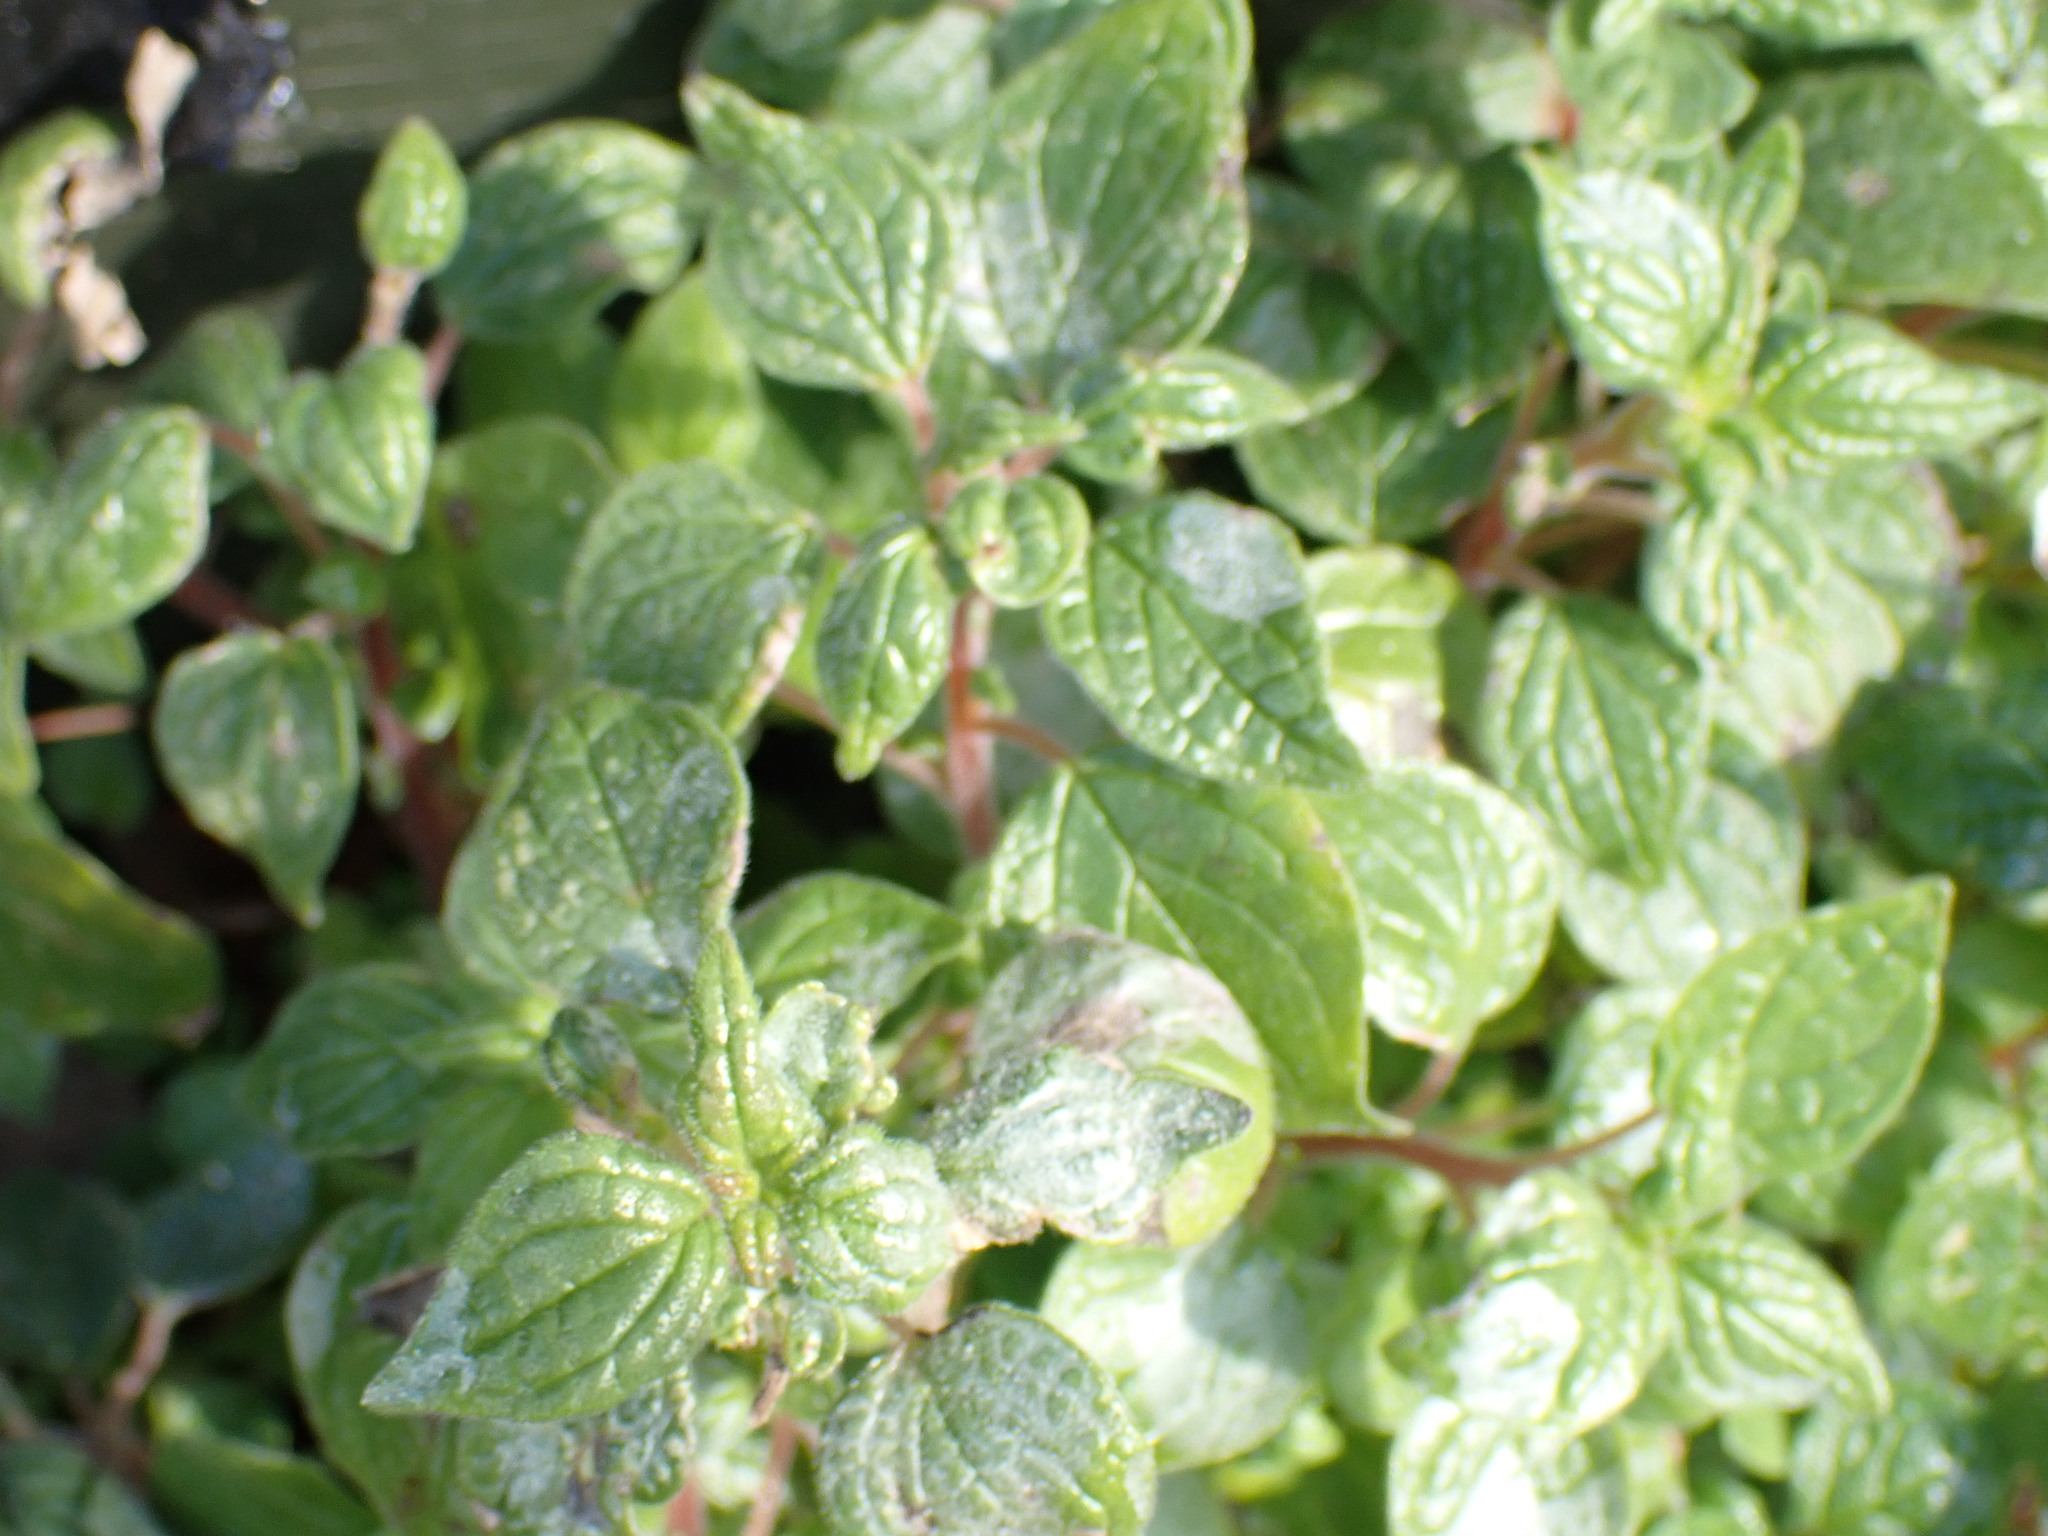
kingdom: Plantae
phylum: Tracheophyta
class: Magnoliopsida
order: Rosales
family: Urticaceae
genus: Parietaria
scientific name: Parietaria judaica
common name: Pellitory-of-the-wall
